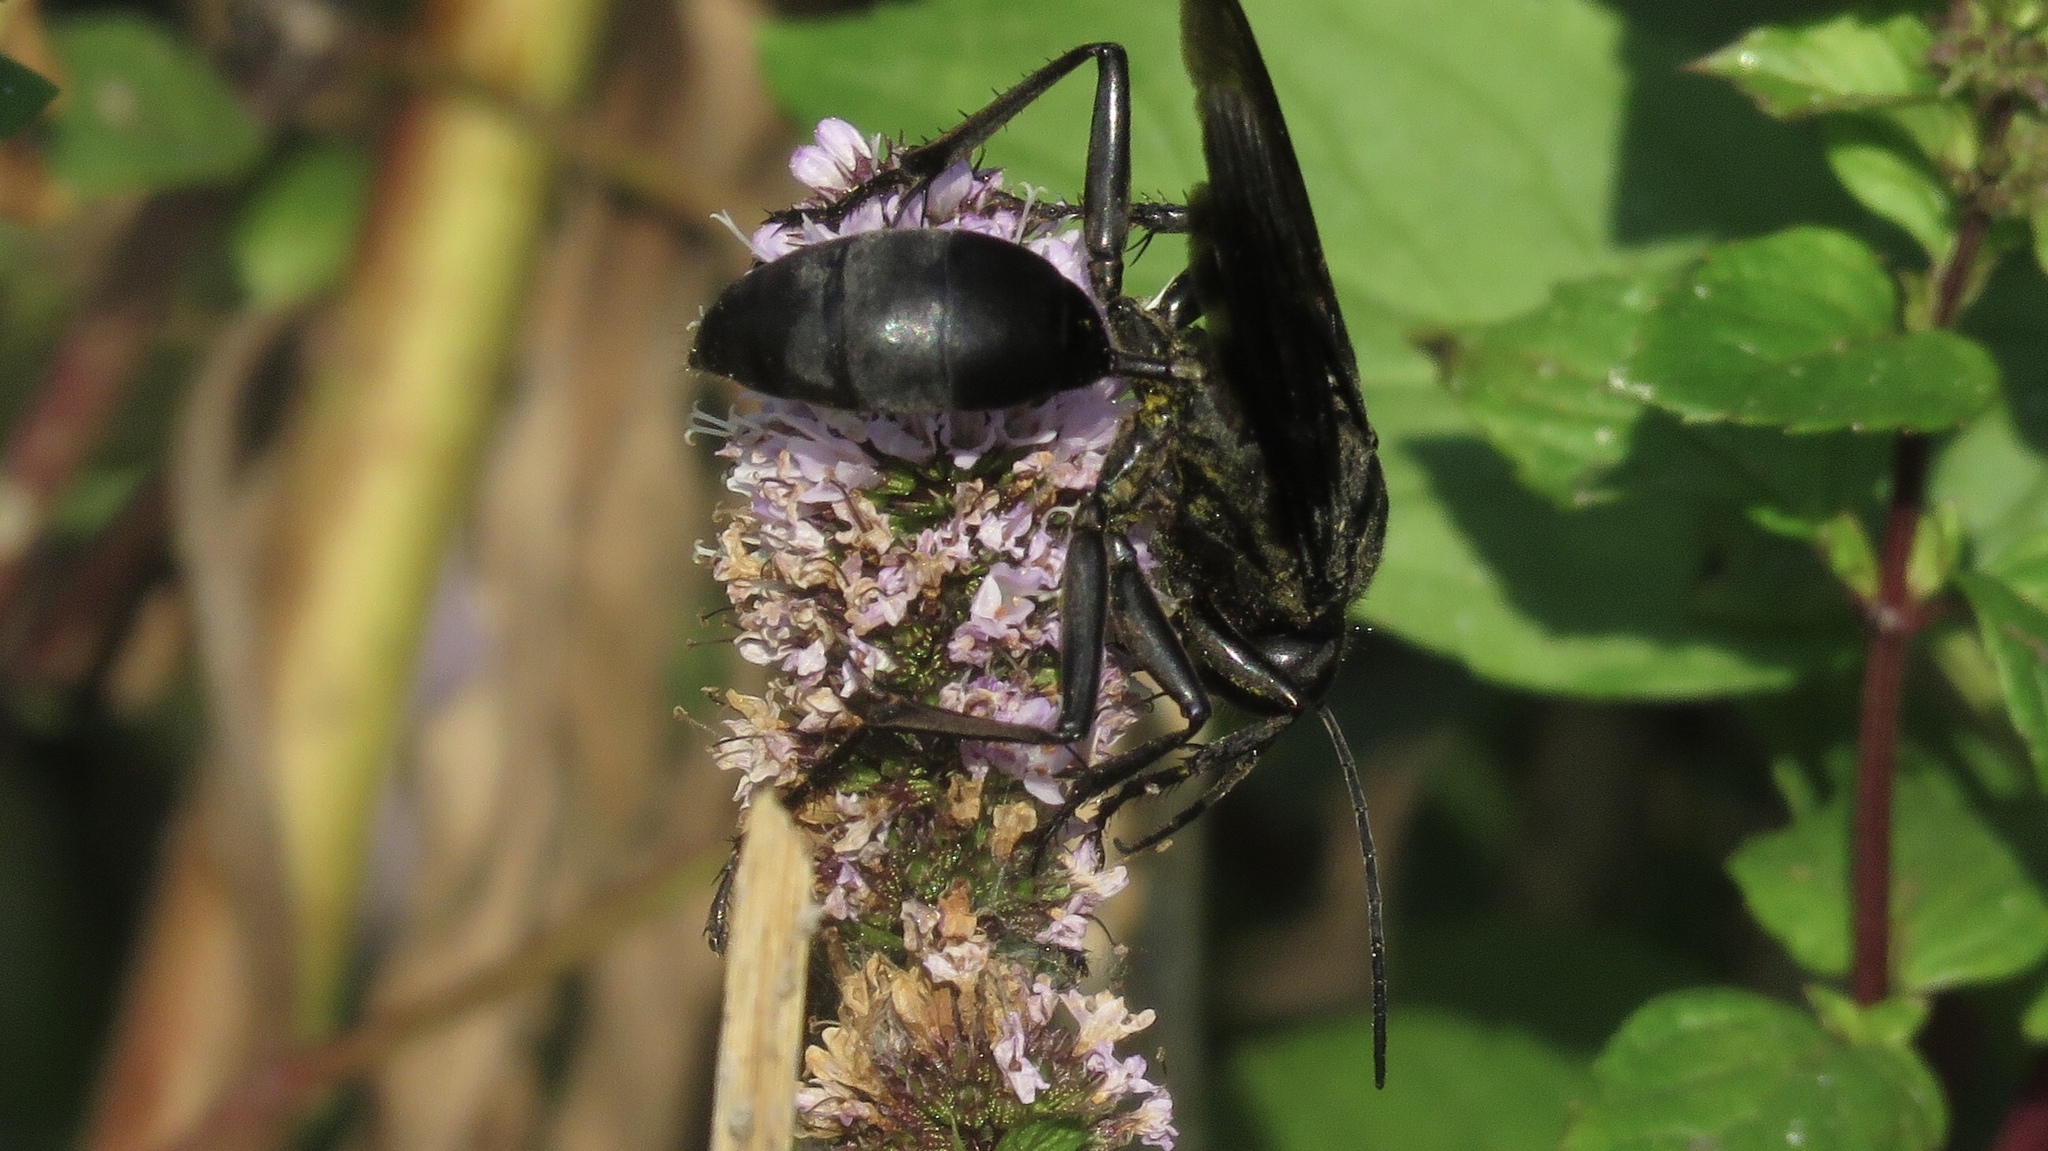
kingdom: Animalia
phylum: Arthropoda
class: Insecta
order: Hymenoptera
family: Sphecidae
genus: Sphex
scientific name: Sphex pensylvanicus
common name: Great black digger wasp
